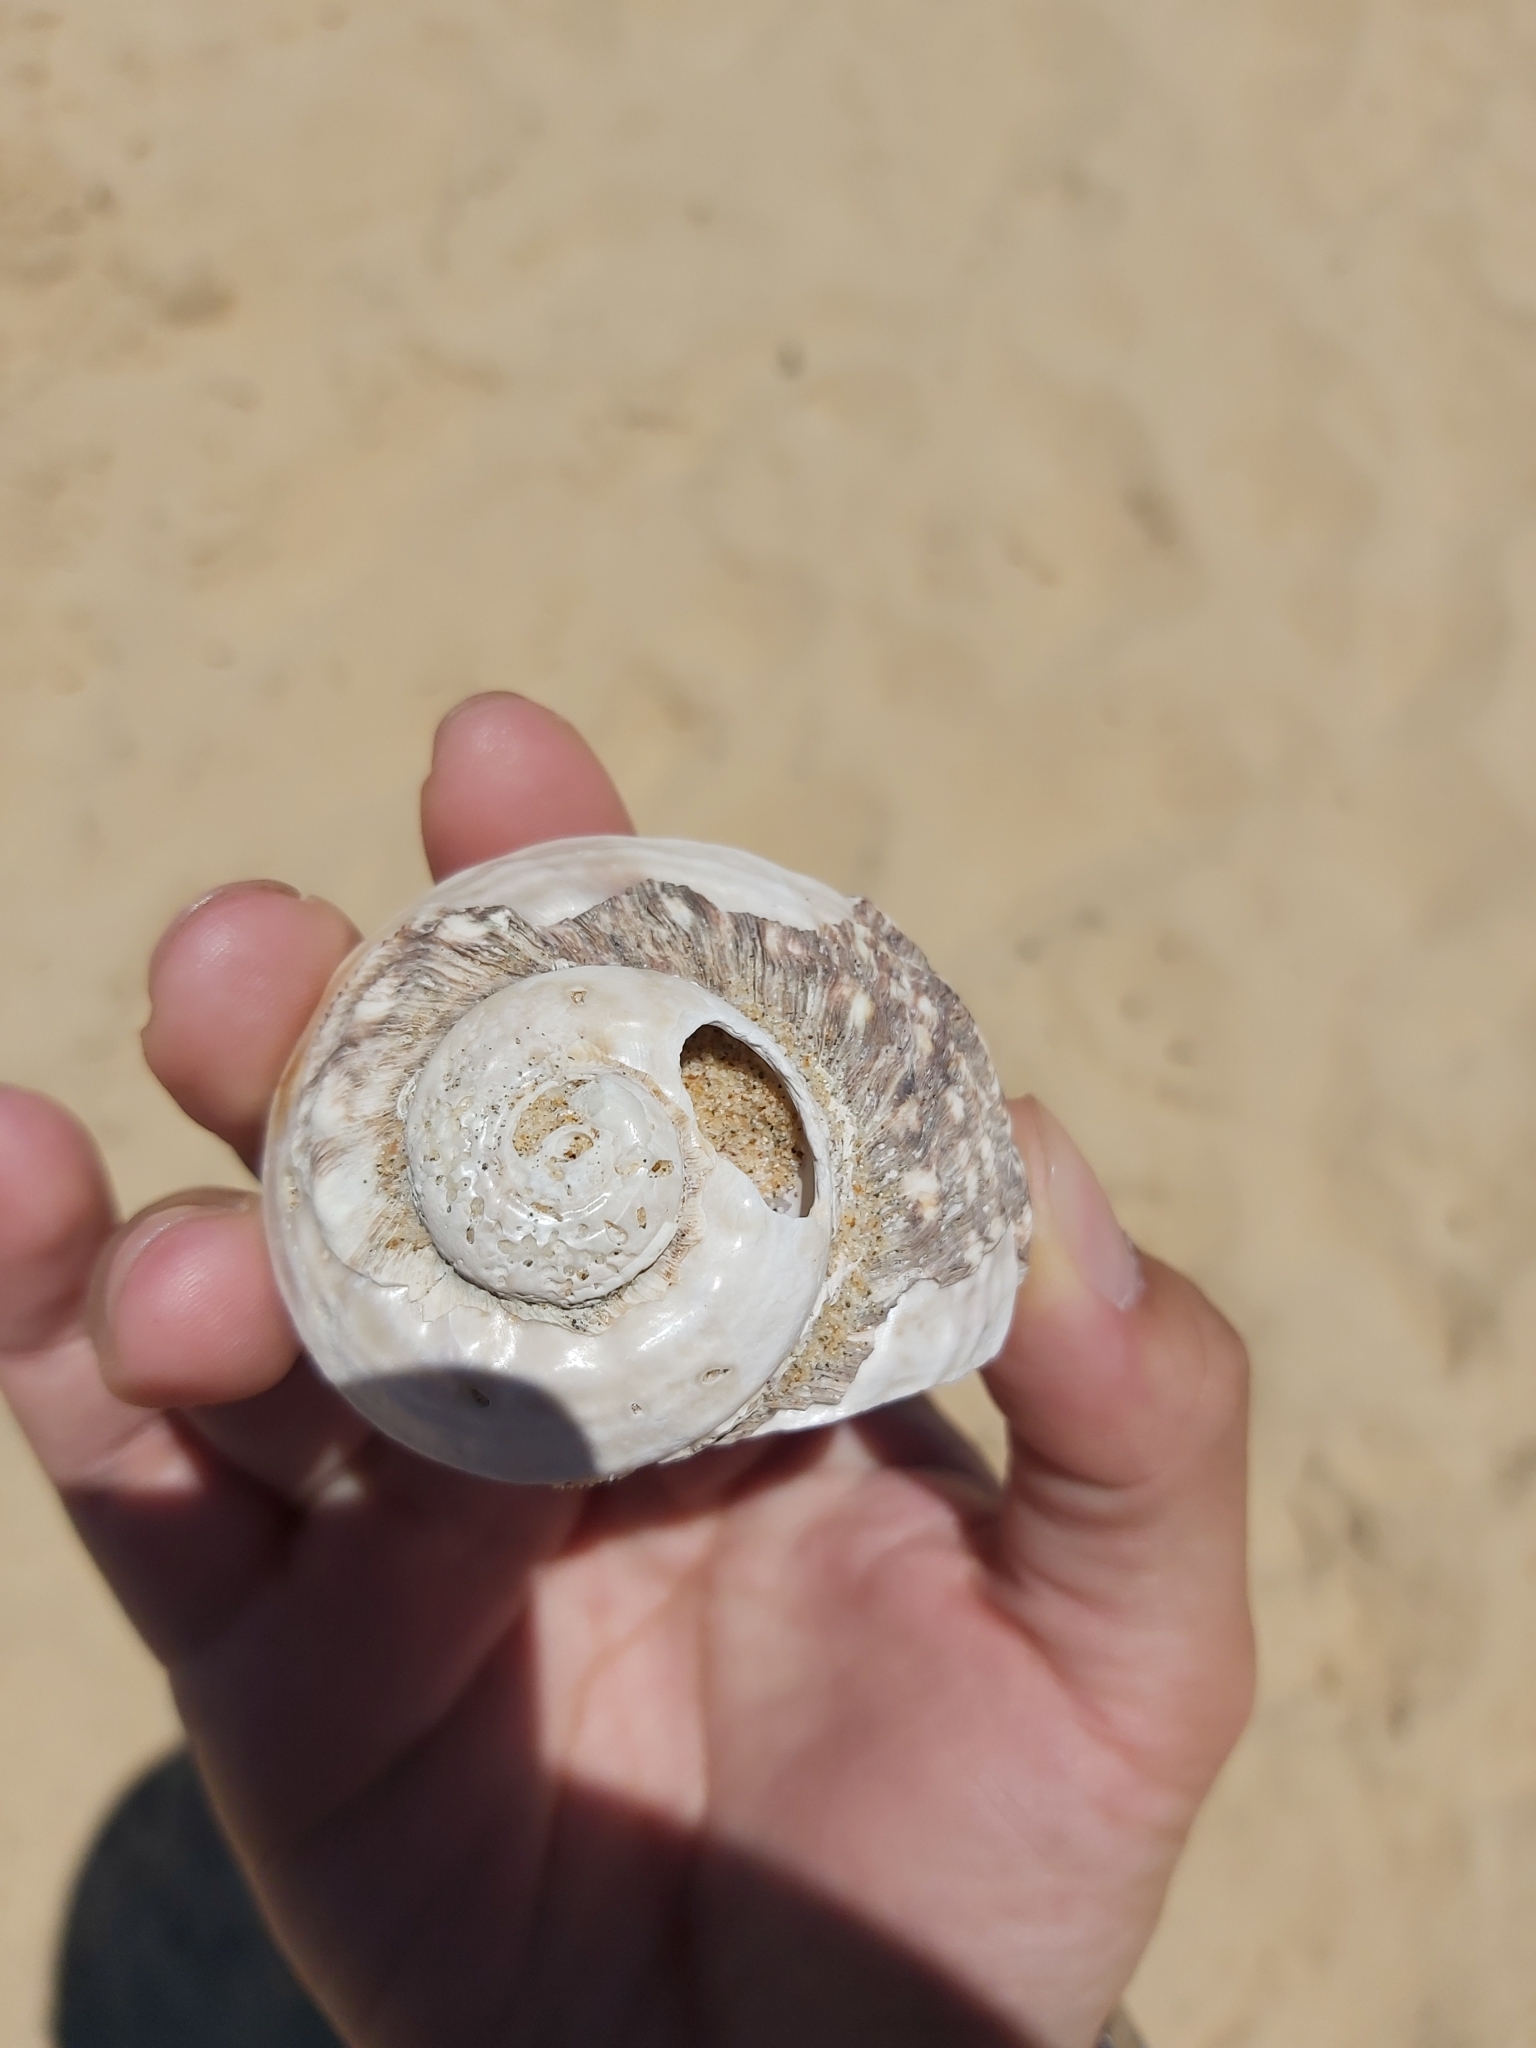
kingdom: Animalia
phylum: Mollusca
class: Gastropoda
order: Trochida
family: Turbinidae
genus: Lunella
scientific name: Lunella torquata
